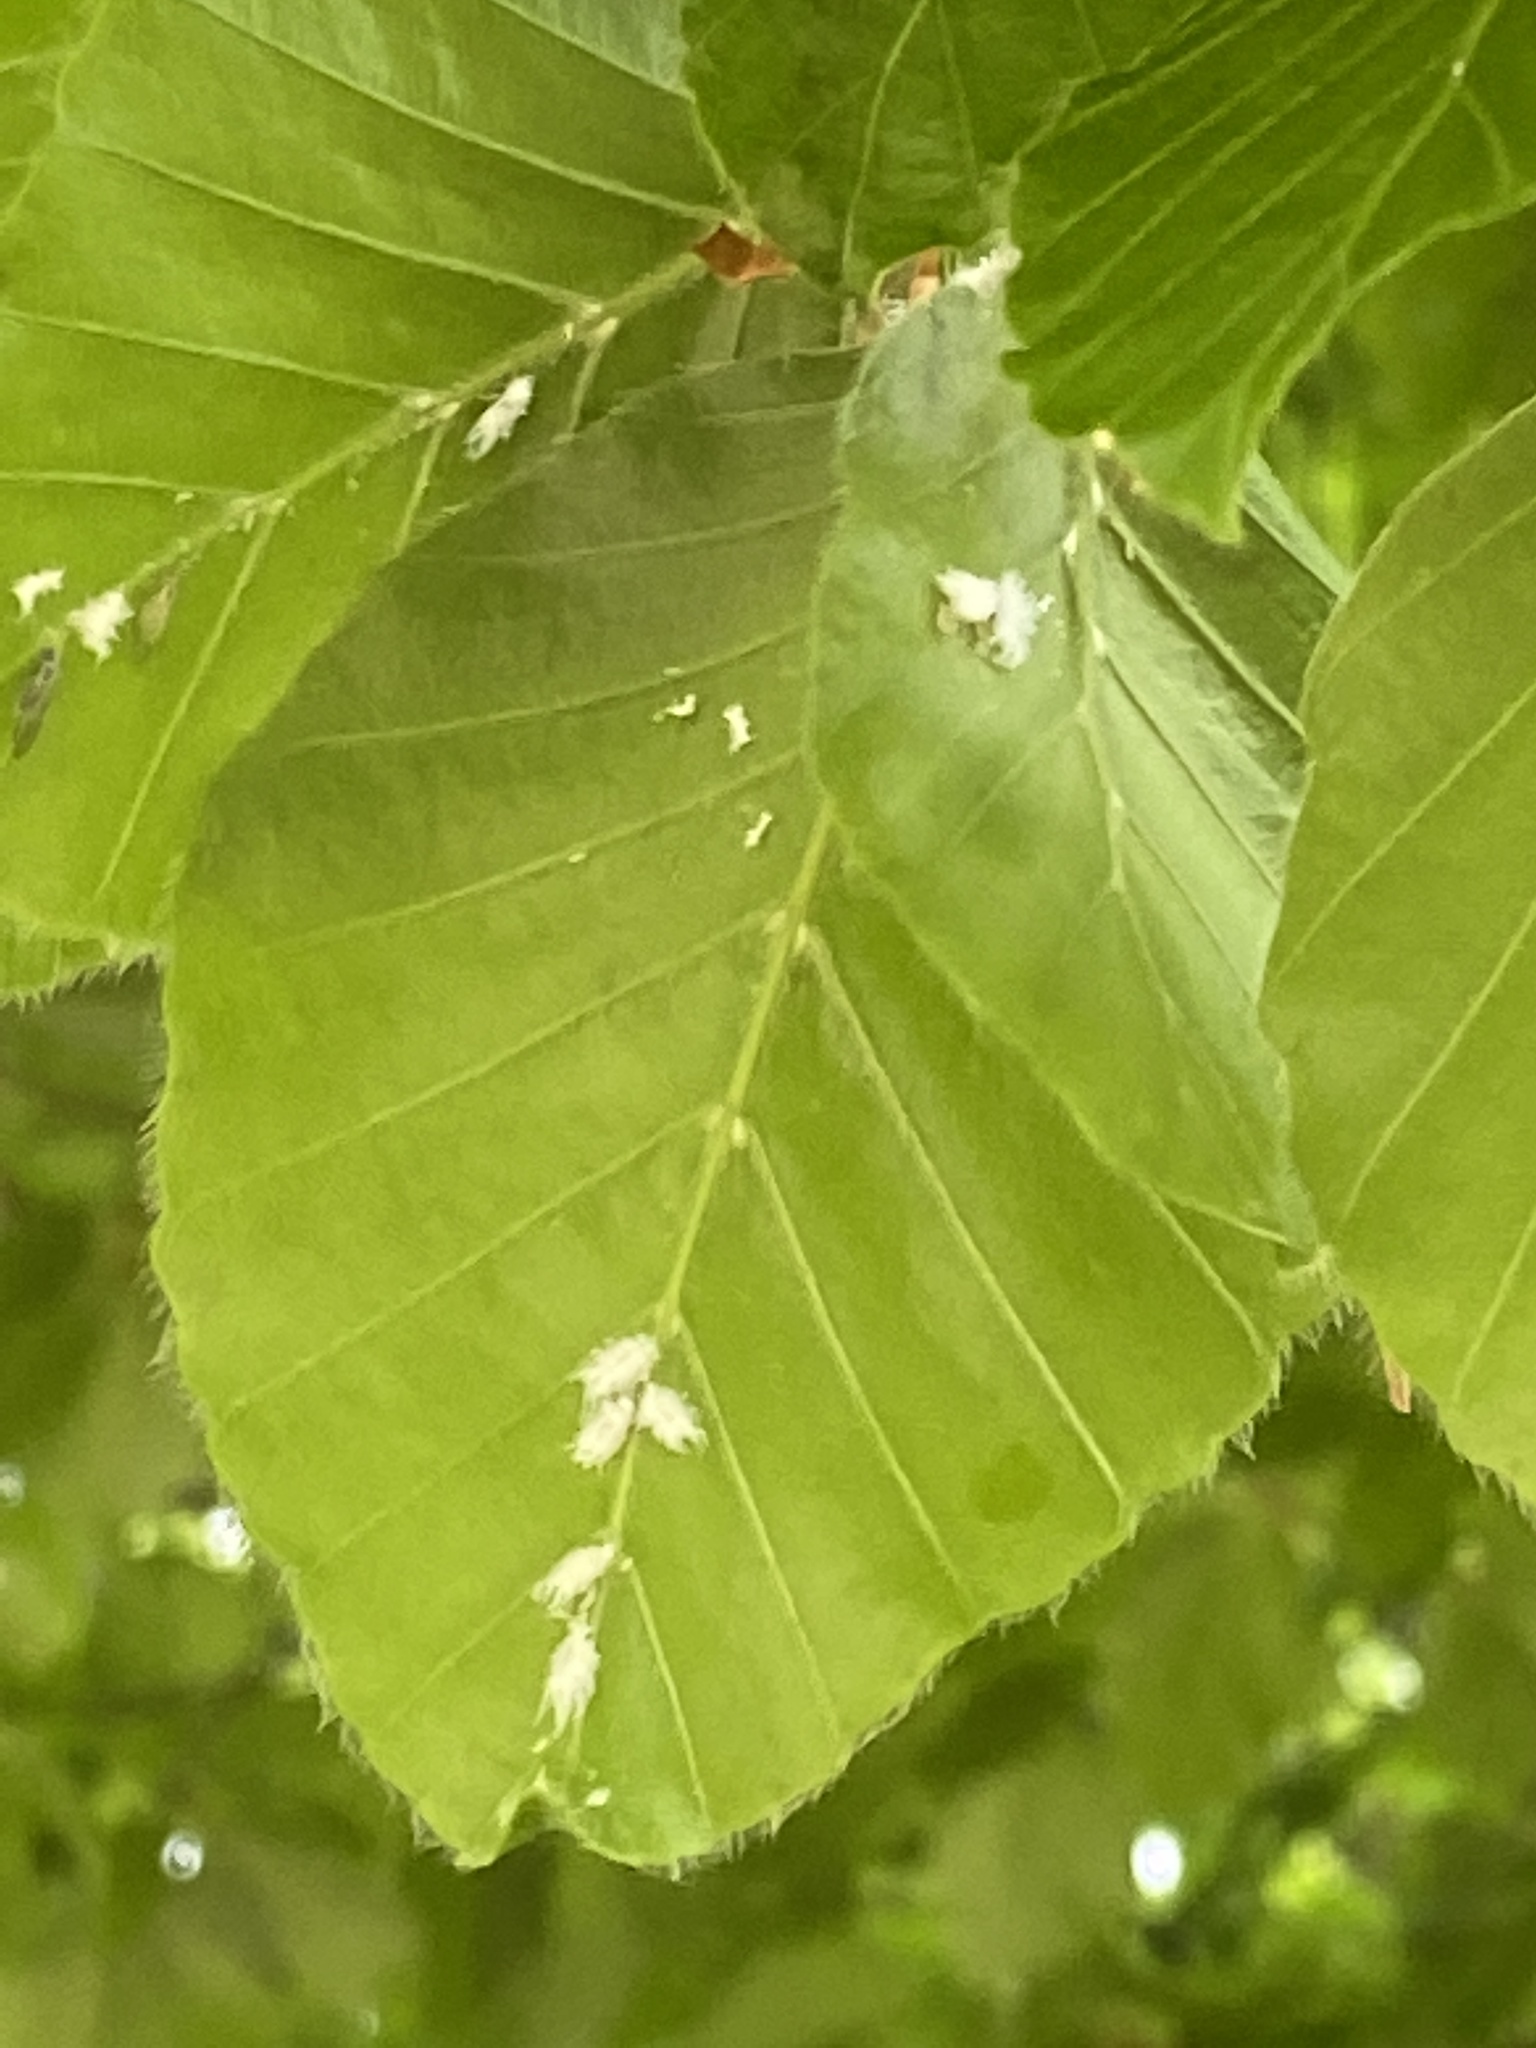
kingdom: Animalia
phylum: Arthropoda
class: Insecta
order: Hemiptera
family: Aphididae
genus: Phyllaphis
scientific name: Phyllaphis fagi
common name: Beech aphid
